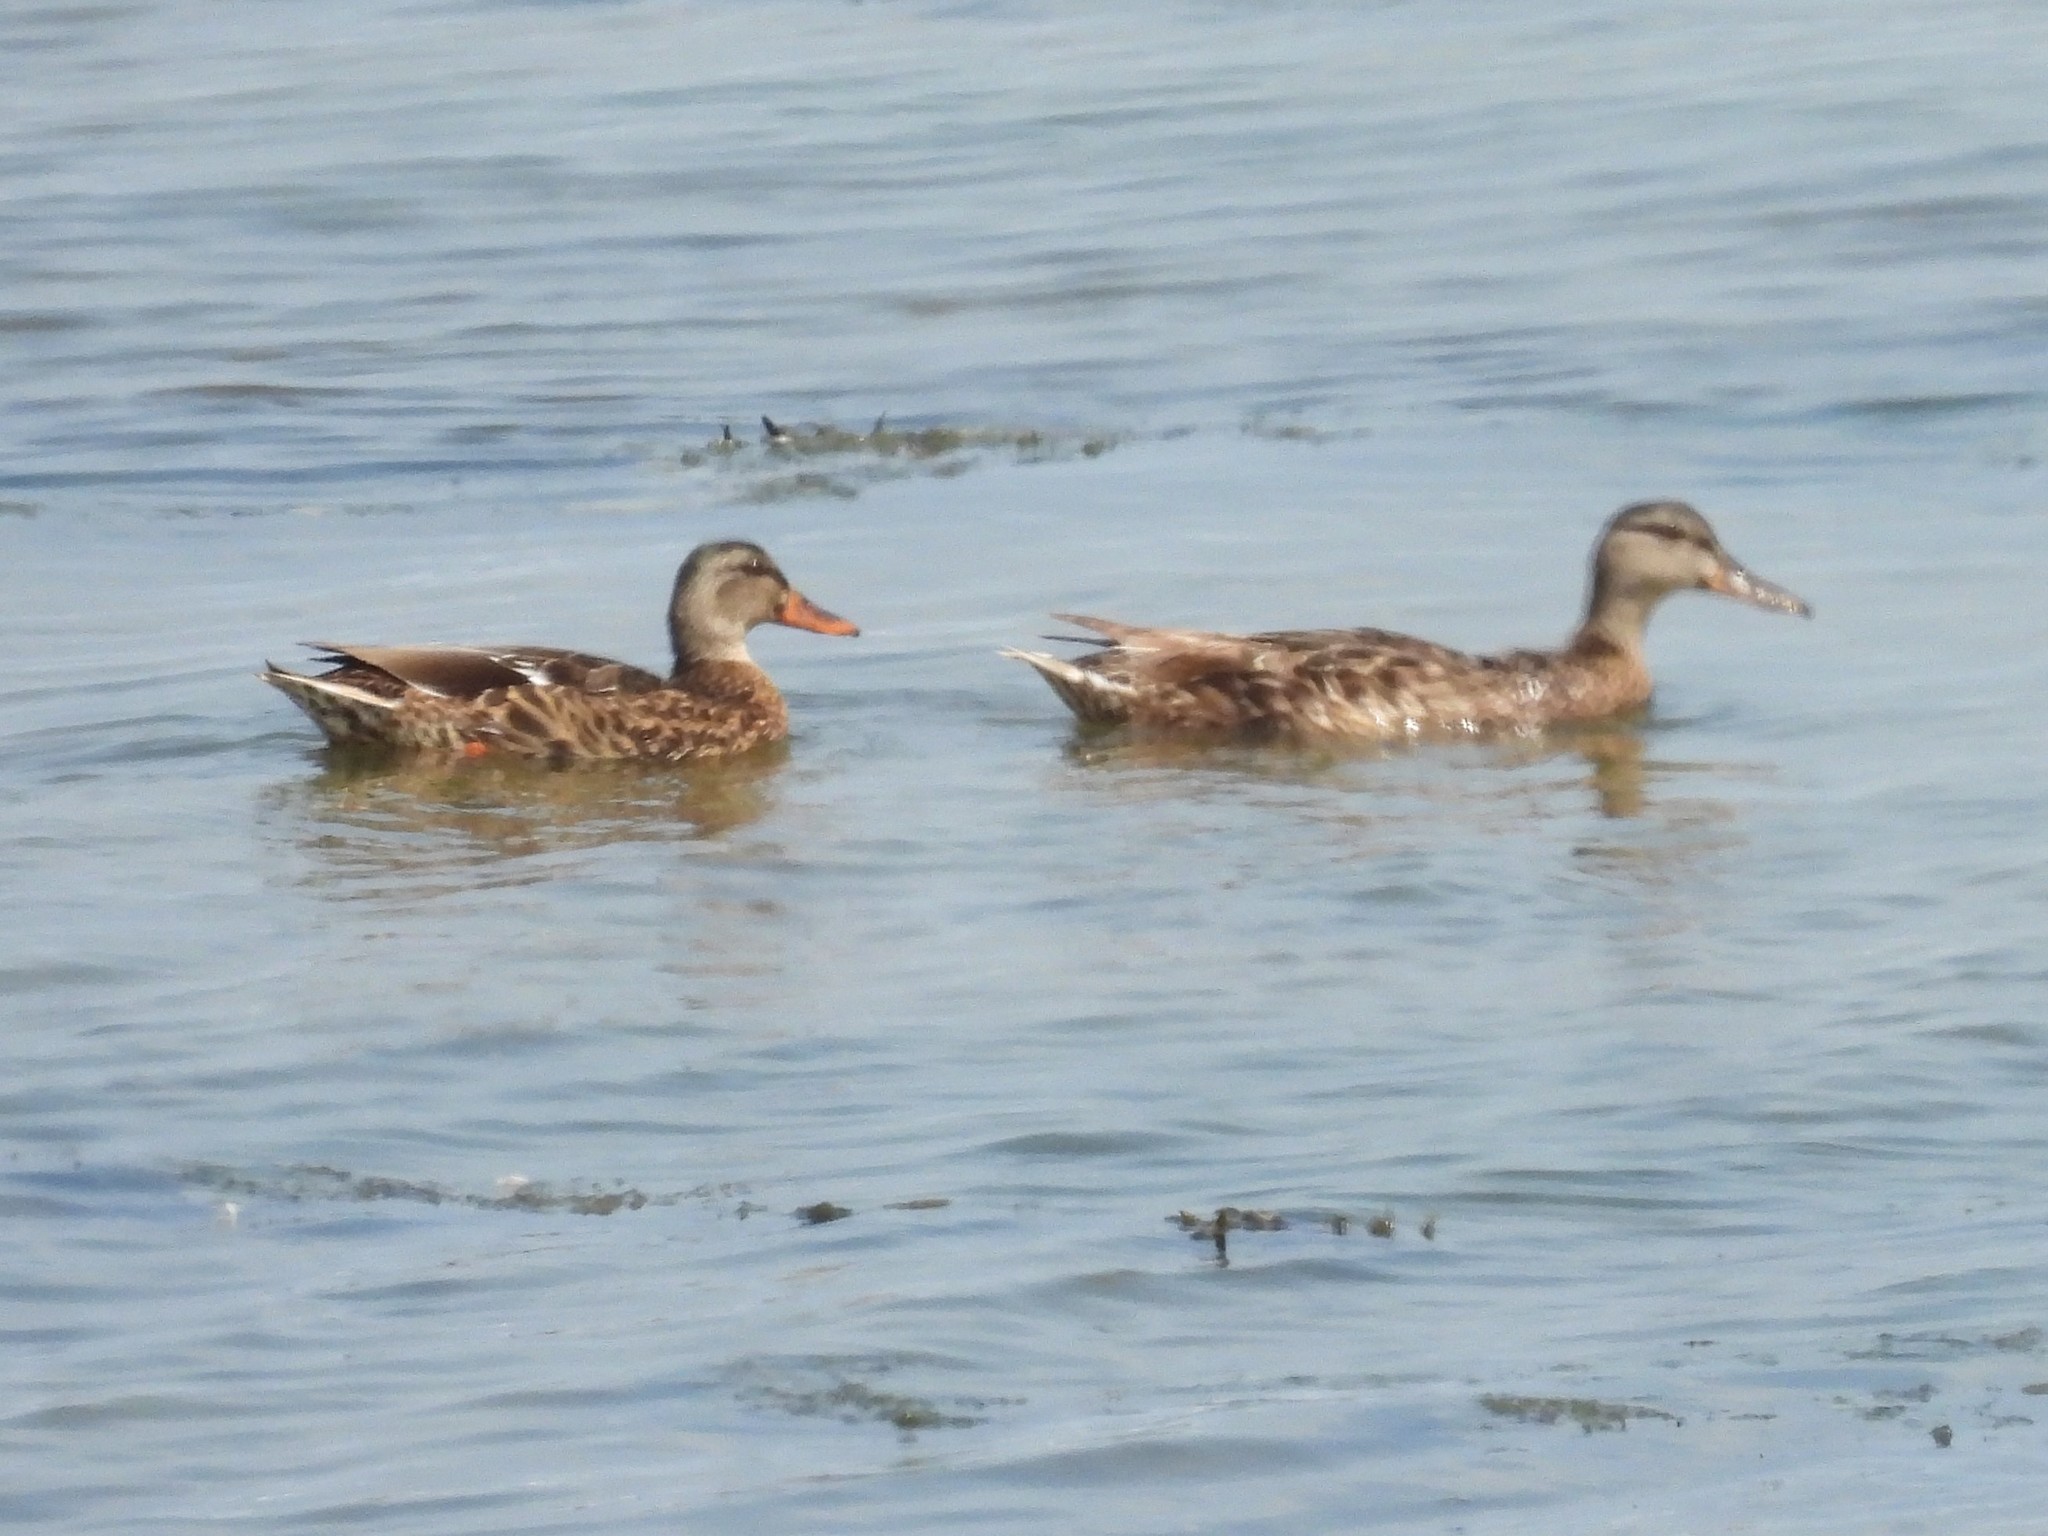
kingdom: Animalia
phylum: Chordata
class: Aves
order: Anseriformes
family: Anatidae
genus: Anas
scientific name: Anas platyrhynchos
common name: Mallard
